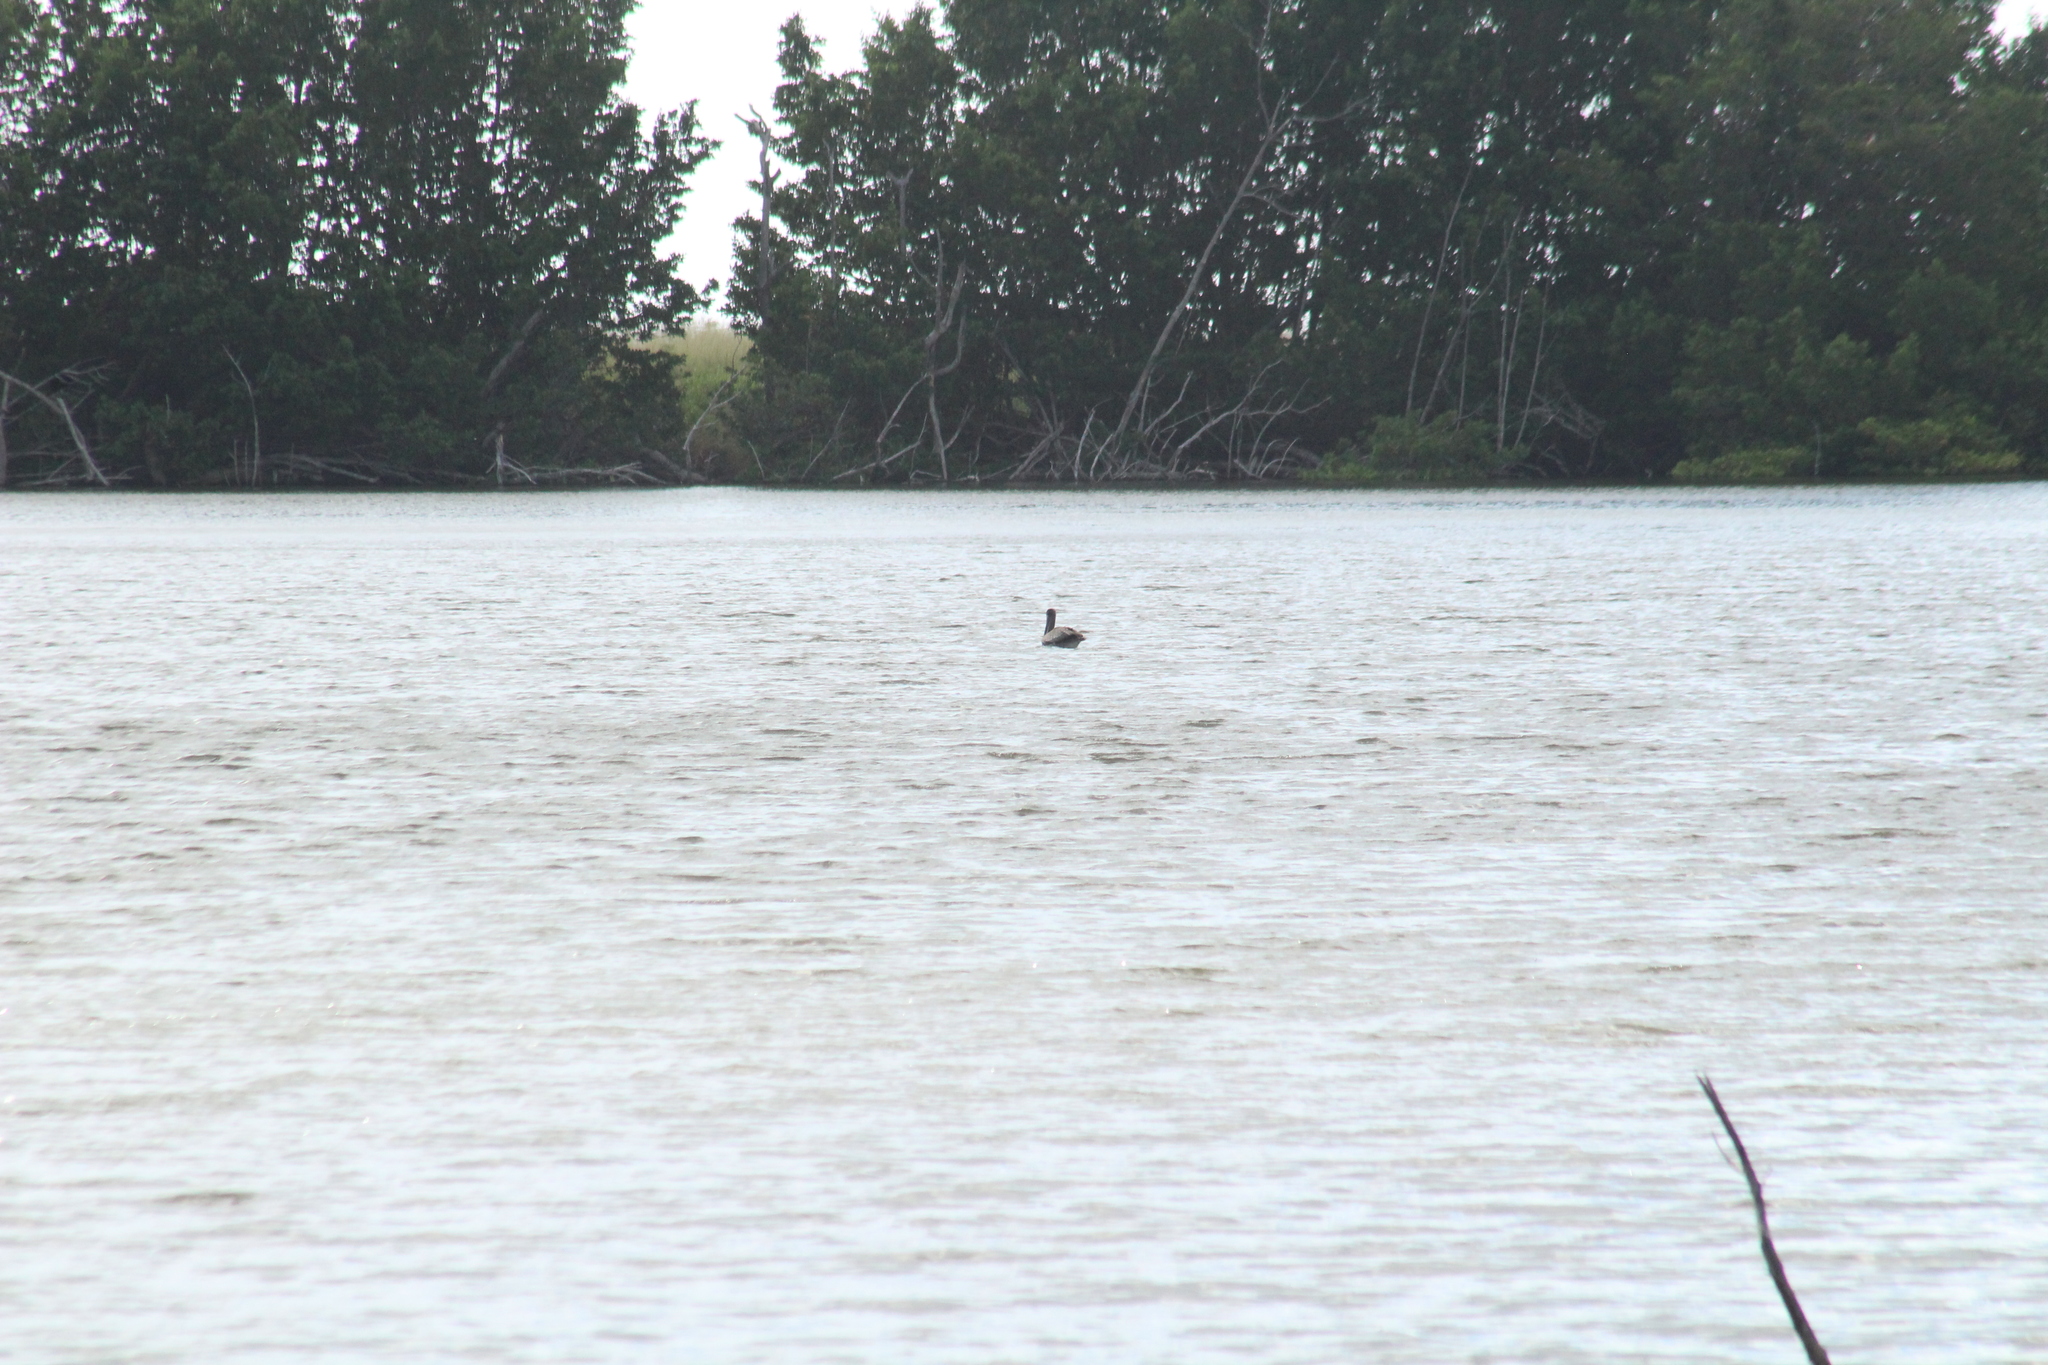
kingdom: Animalia
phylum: Chordata
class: Aves
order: Pelecaniformes
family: Pelecanidae
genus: Pelecanus
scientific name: Pelecanus occidentalis
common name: Brown pelican
